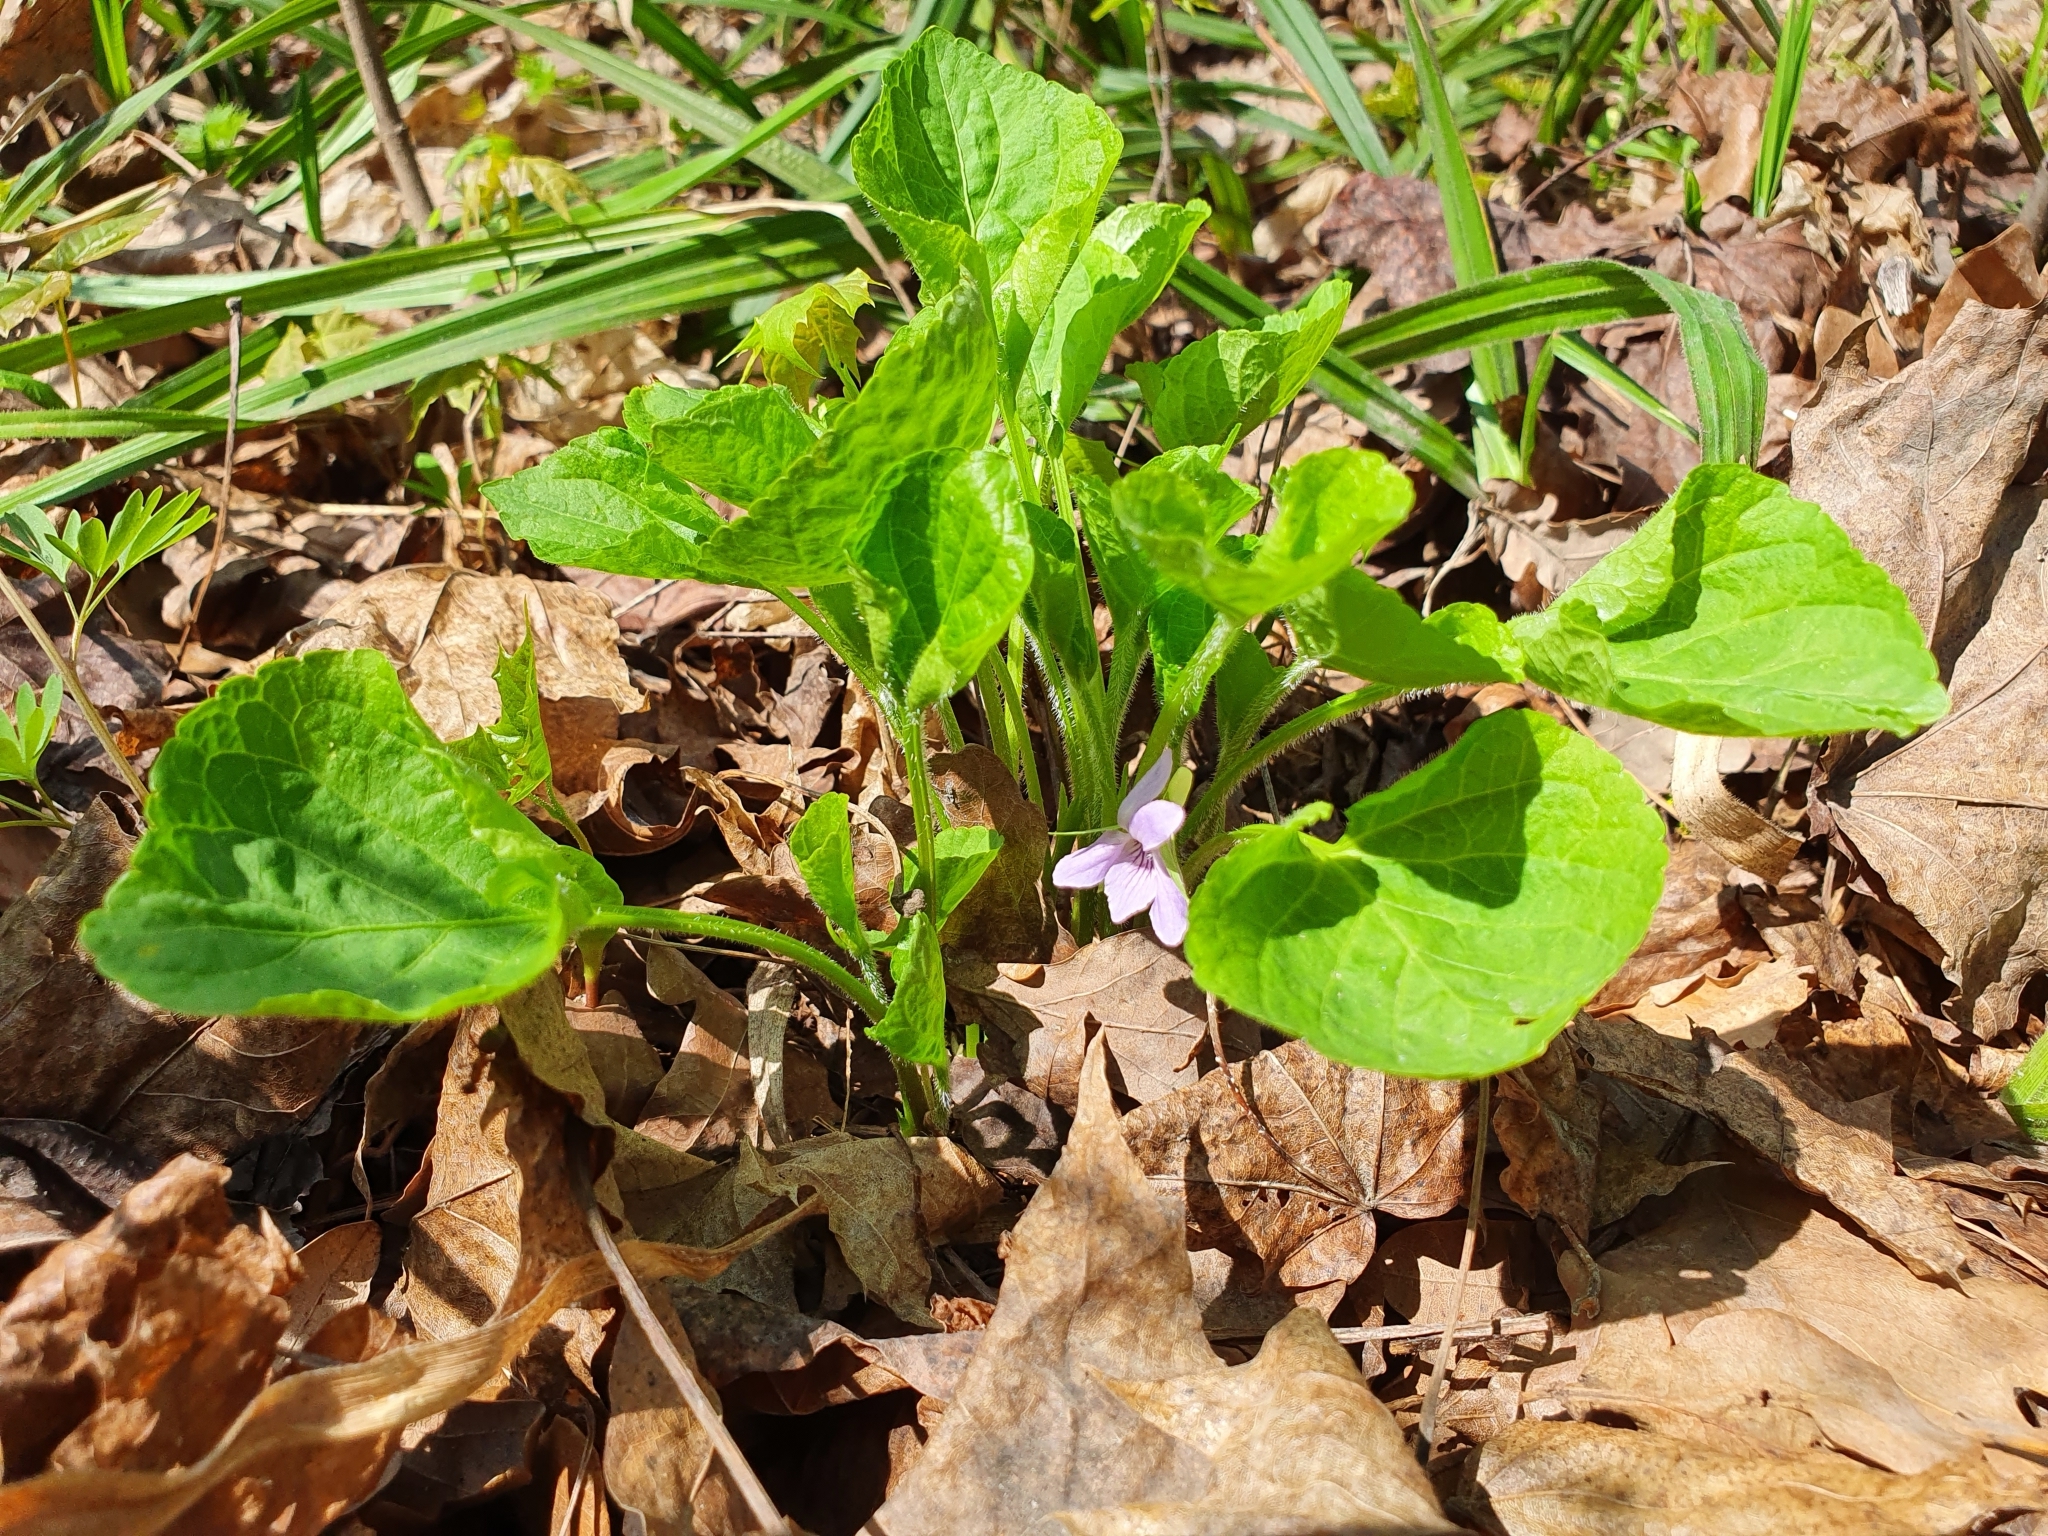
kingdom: Plantae
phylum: Tracheophyta
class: Magnoliopsida
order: Malpighiales
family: Violaceae
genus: Viola
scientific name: Viola mirabilis
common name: Wonder violet
